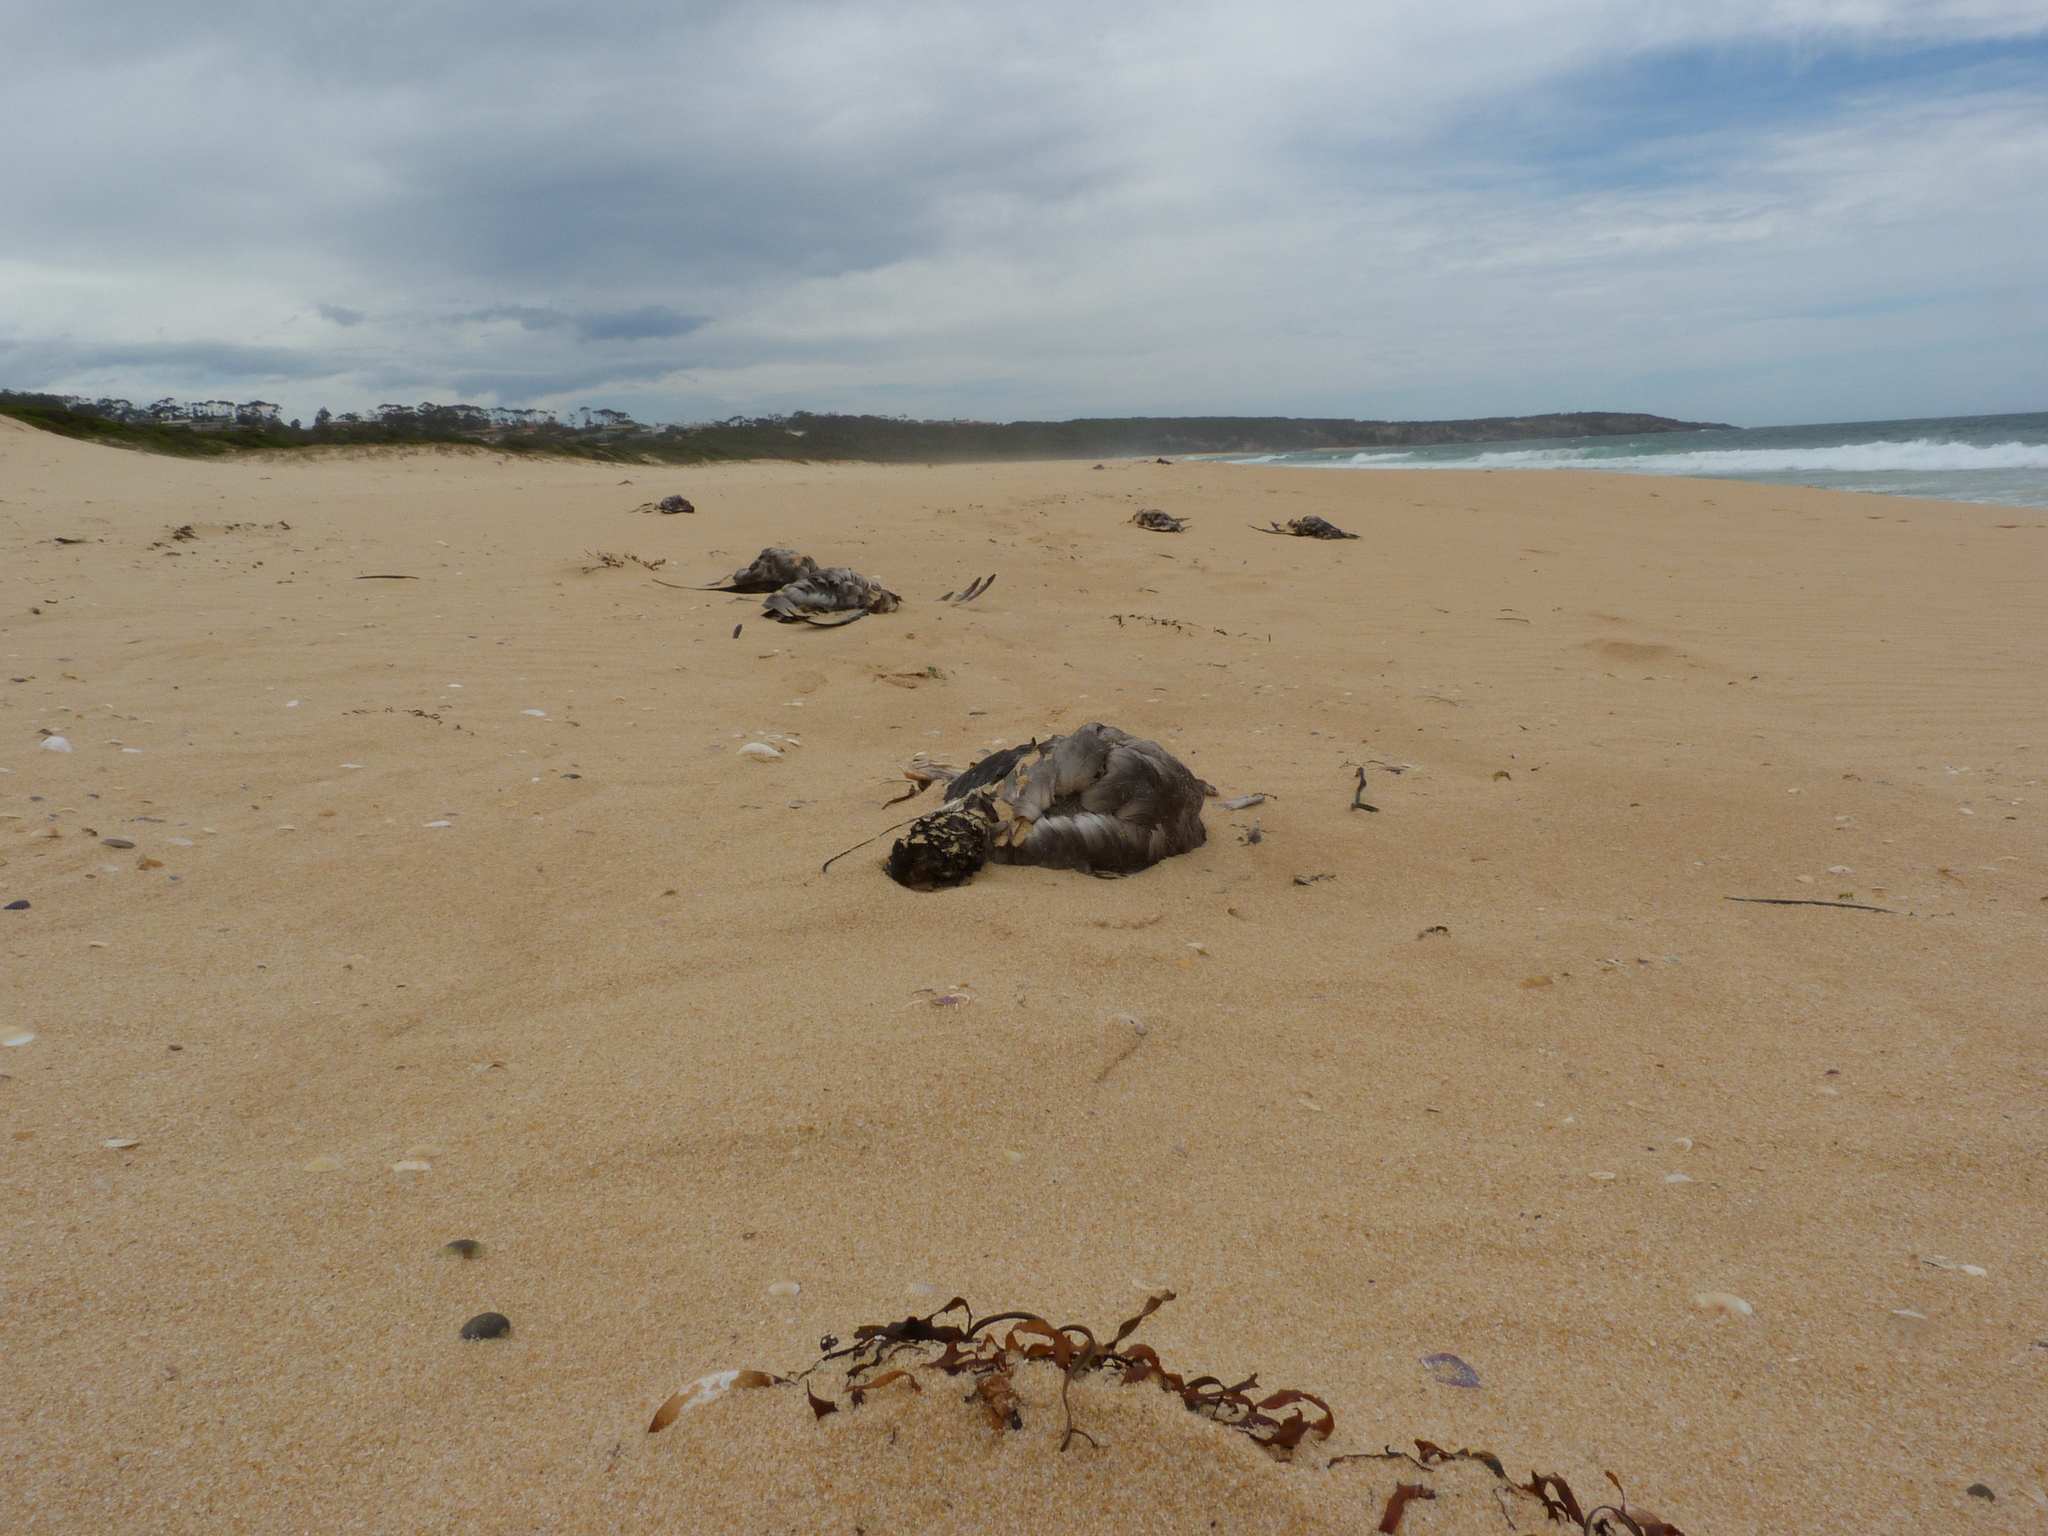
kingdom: Animalia
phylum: Chordata
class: Aves
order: Procellariiformes
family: Procellariidae
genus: Puffinus
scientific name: Puffinus tenuirostris
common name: Short-tailed shearwater
